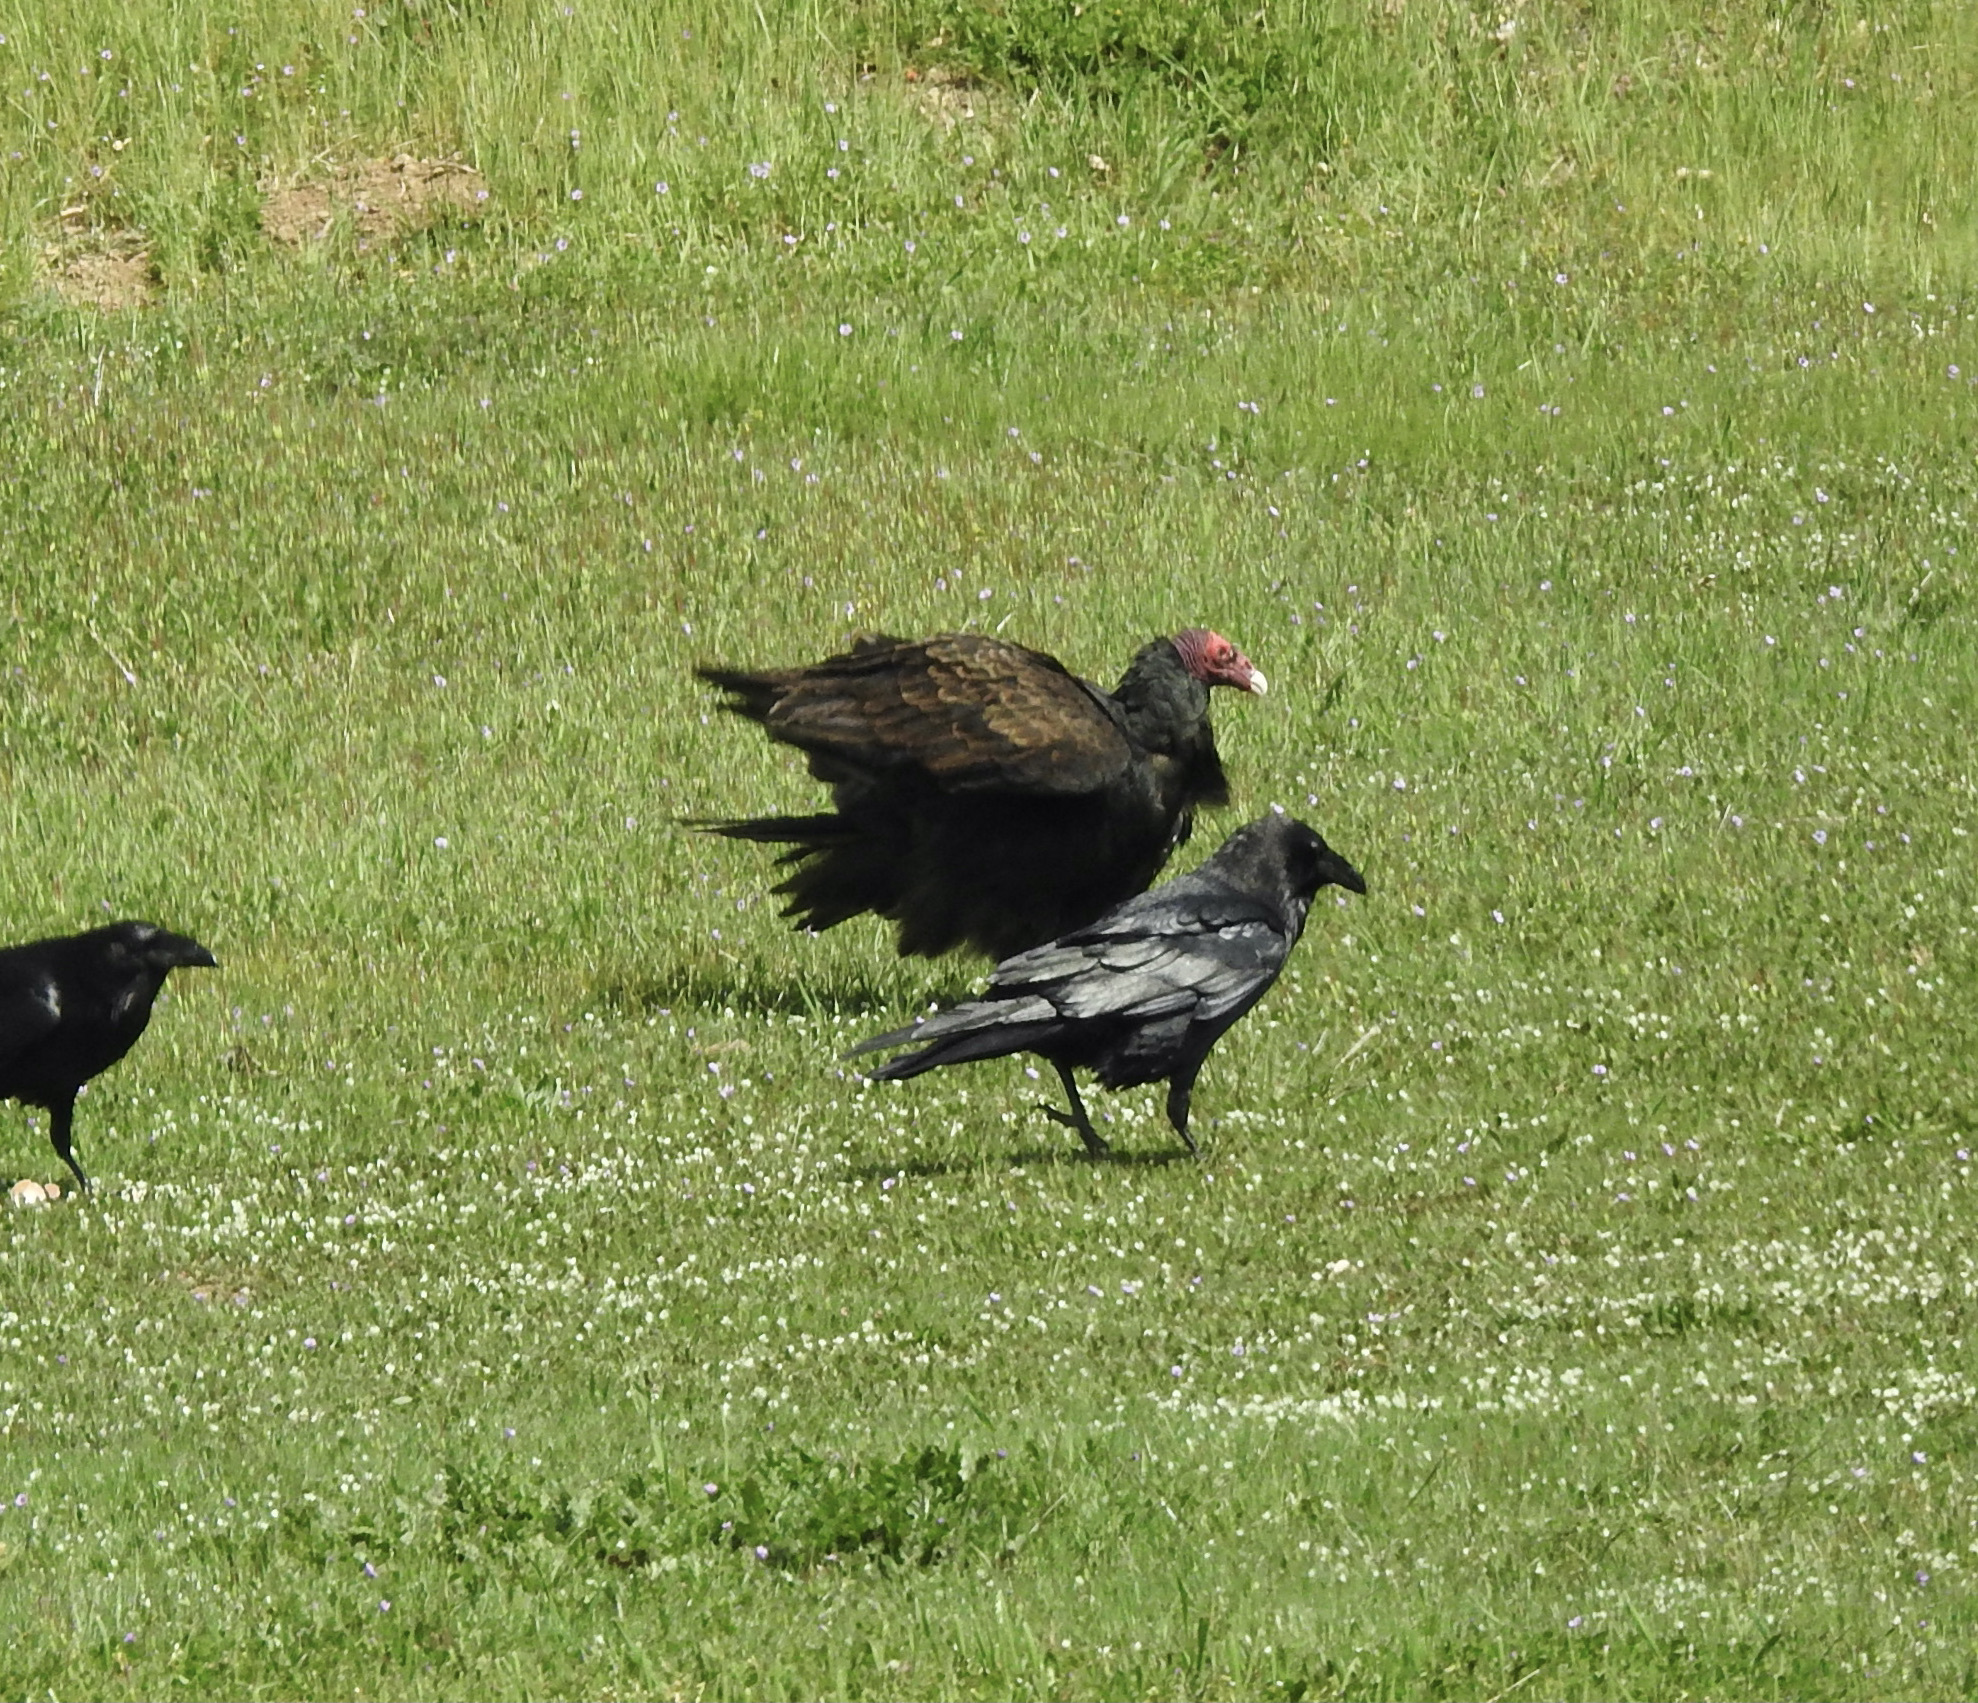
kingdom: Animalia
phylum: Chordata
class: Aves
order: Accipitriformes
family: Cathartidae
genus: Cathartes
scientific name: Cathartes aura
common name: Turkey vulture
